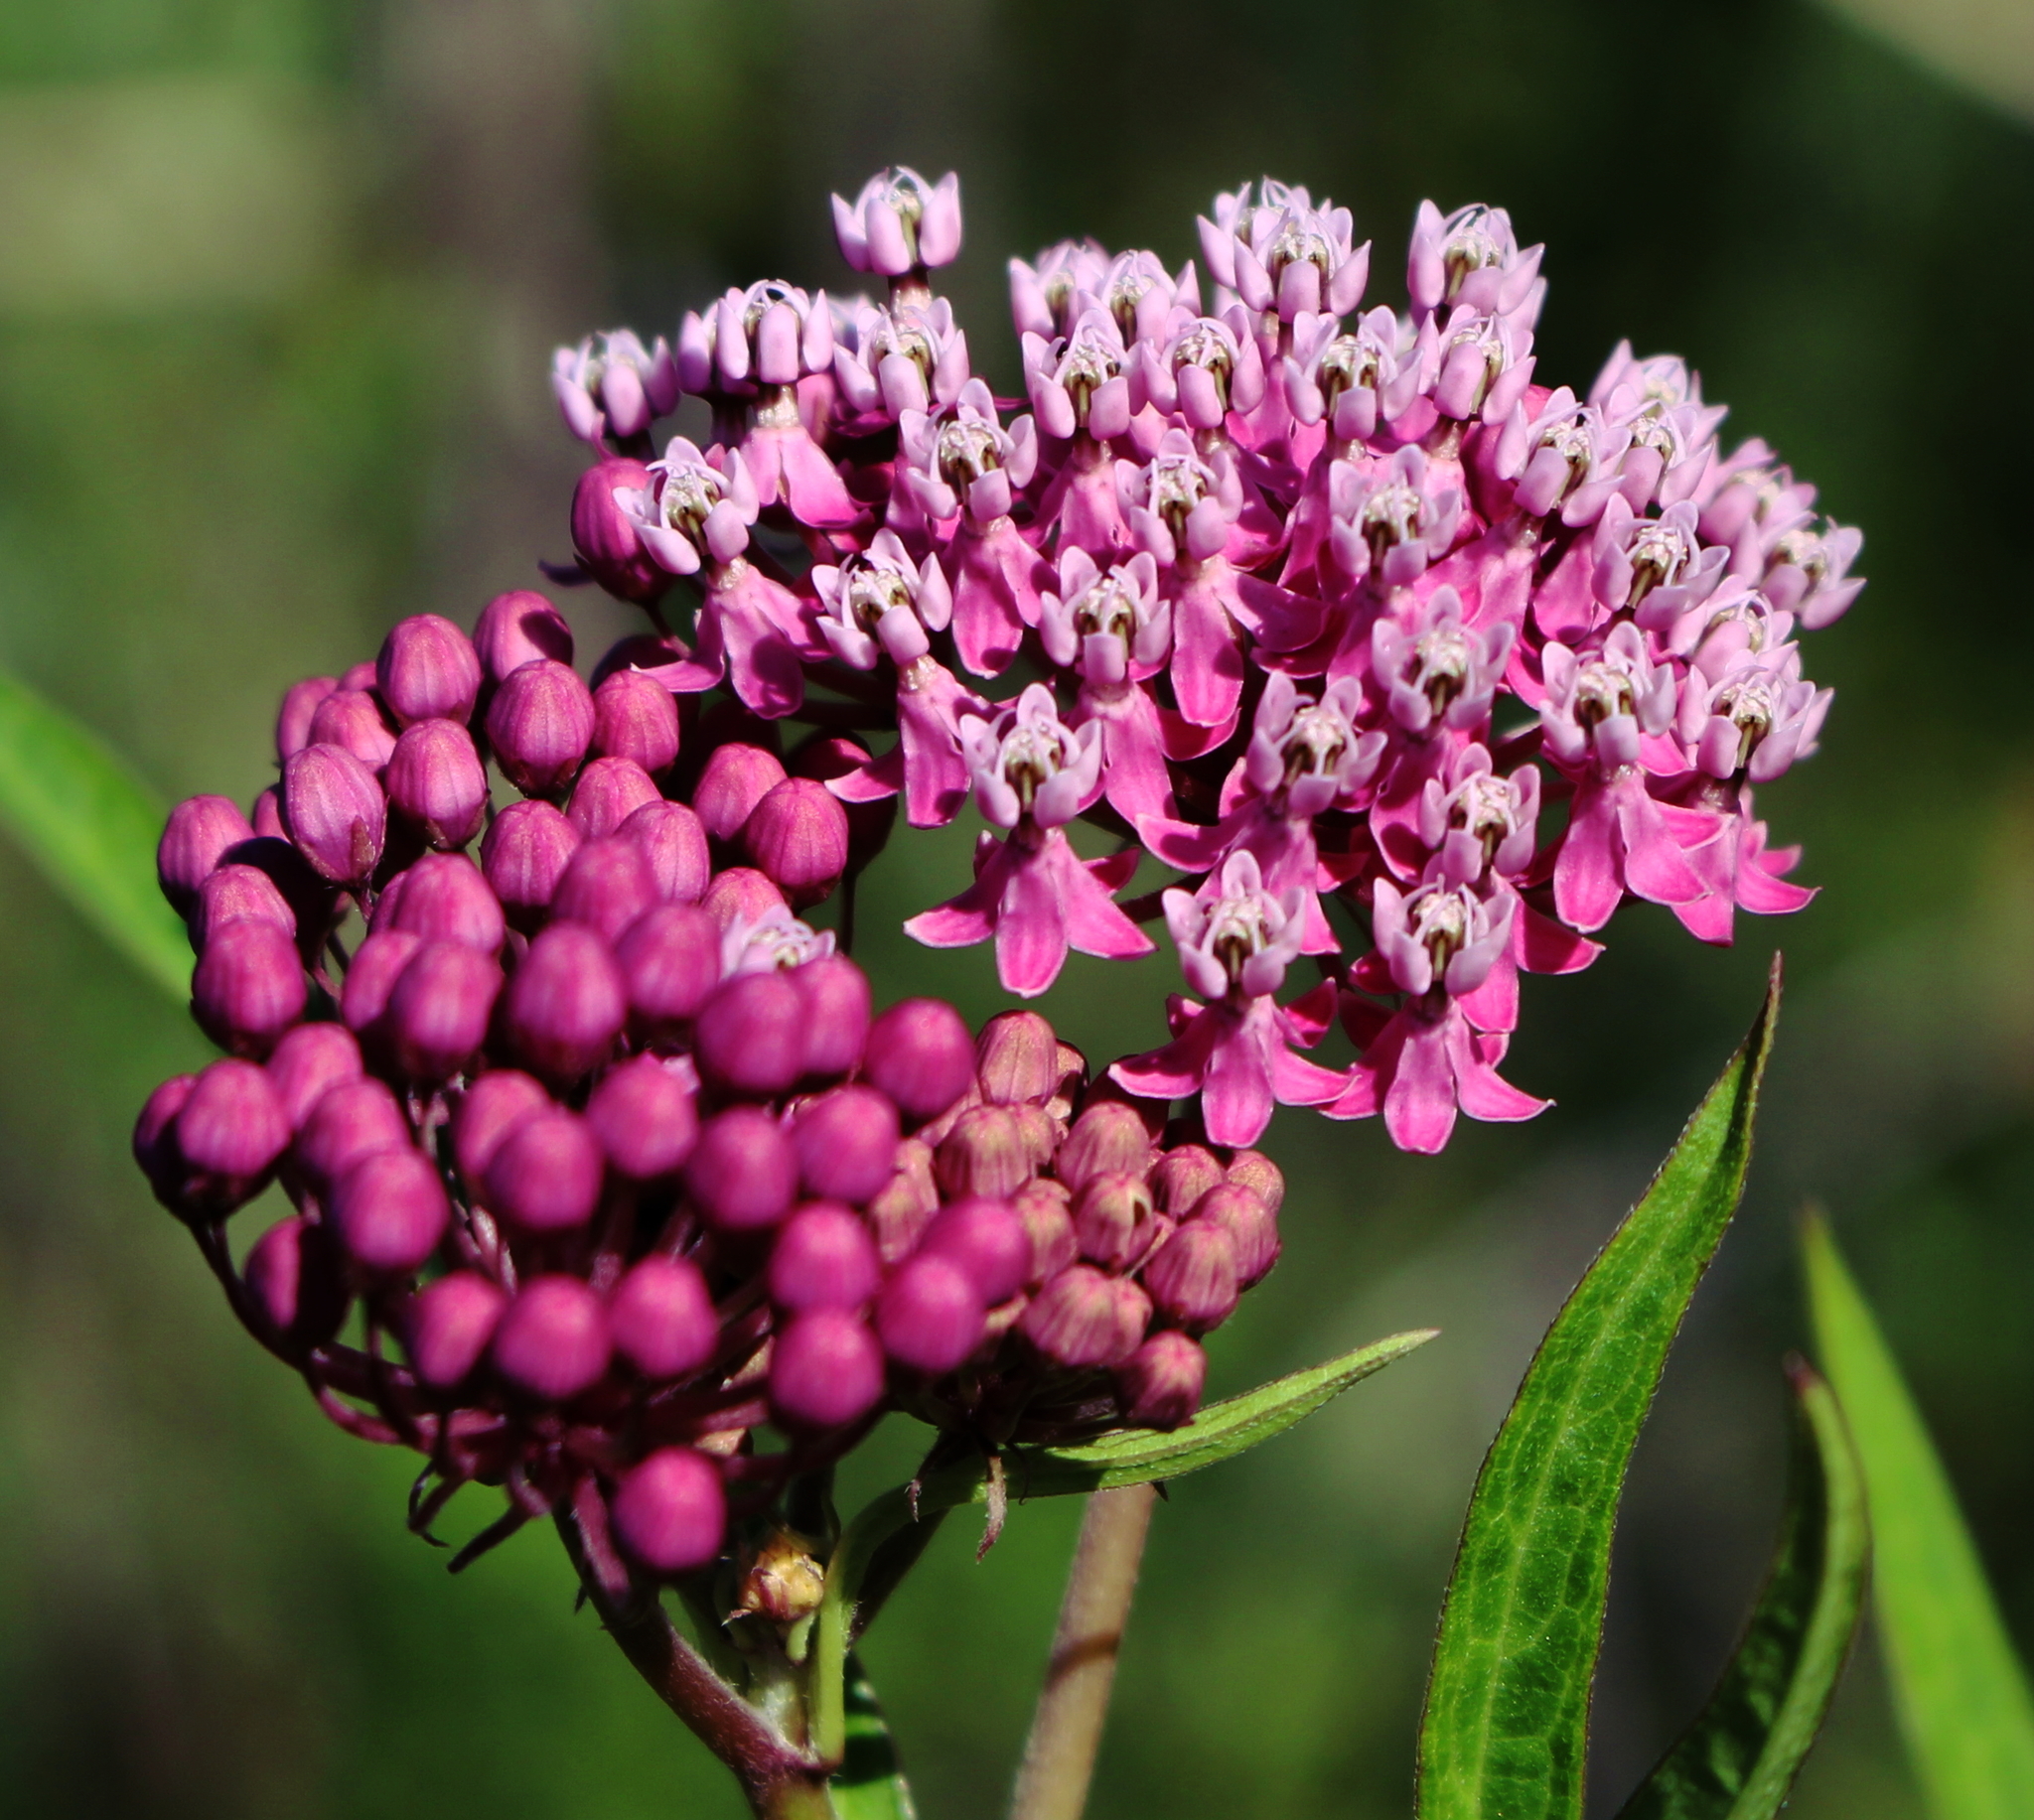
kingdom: Plantae
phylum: Tracheophyta
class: Magnoliopsida
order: Gentianales
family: Apocynaceae
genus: Asclepias
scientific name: Asclepias incarnata
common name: Swamp milkweed
